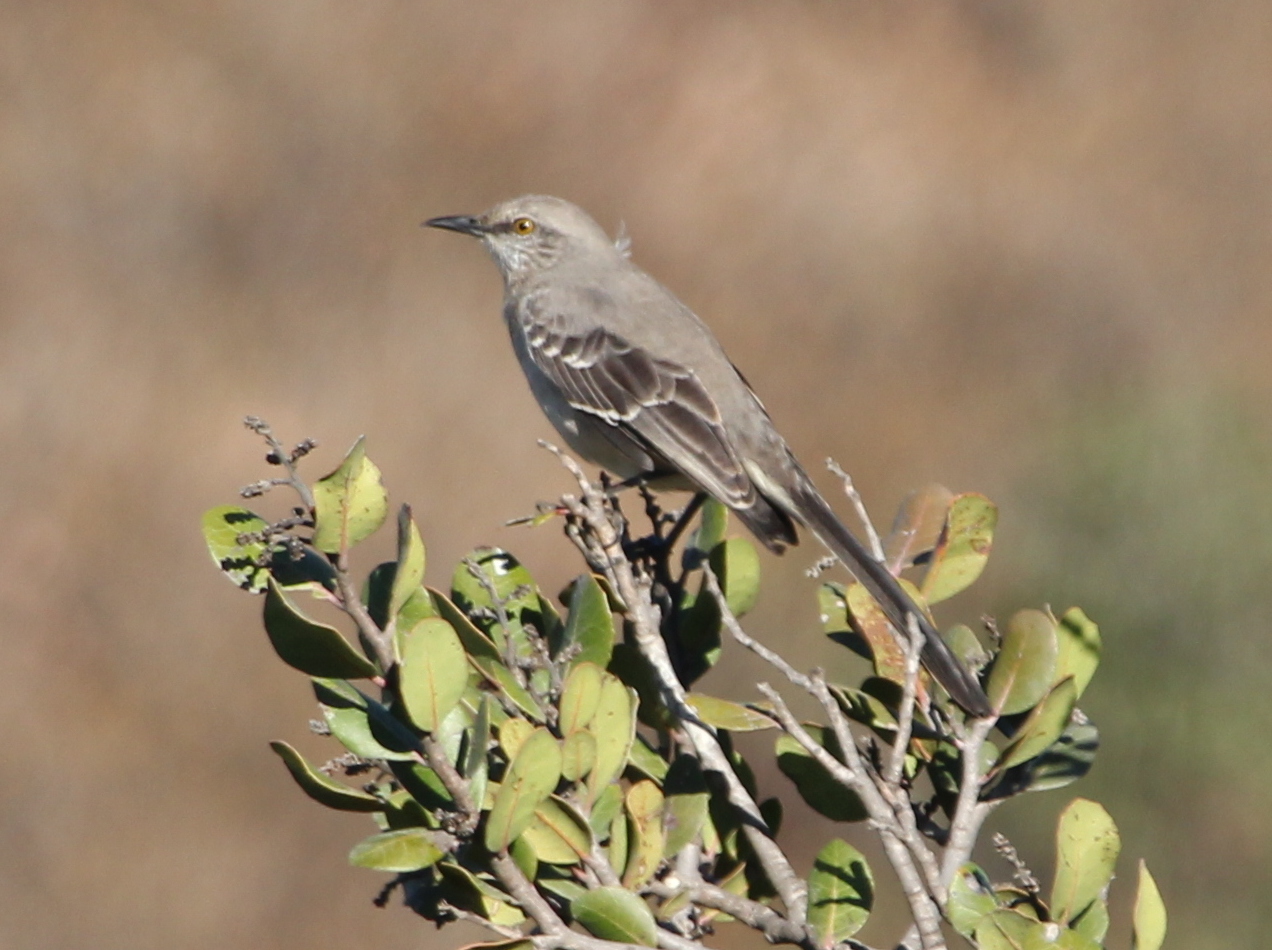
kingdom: Animalia
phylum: Chordata
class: Aves
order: Passeriformes
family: Mimidae
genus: Mimus
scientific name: Mimus polyglottos
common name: Northern mockingbird
